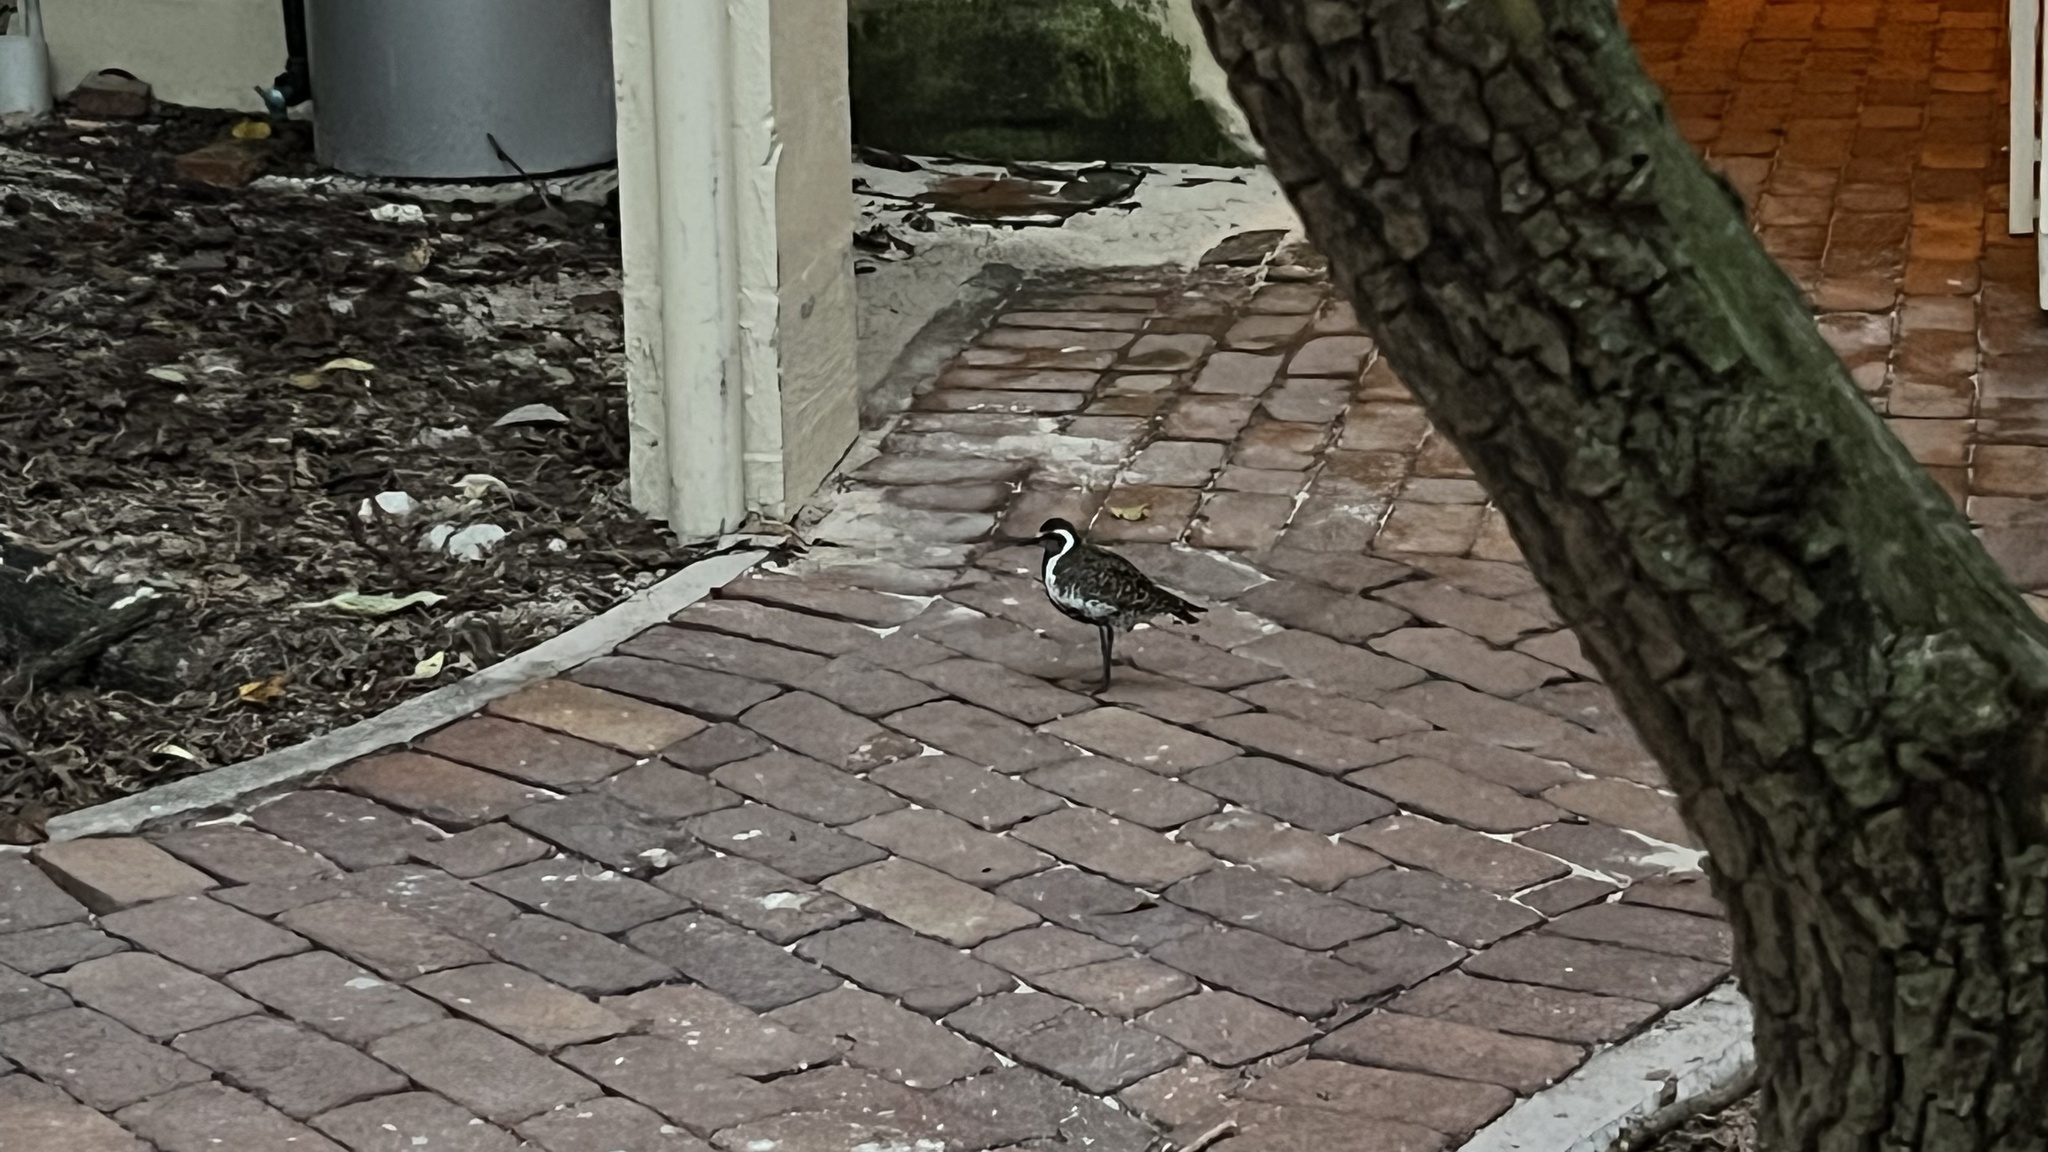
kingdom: Animalia
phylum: Chordata
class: Aves
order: Charadriiformes
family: Charadriidae
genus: Pluvialis
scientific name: Pluvialis fulva
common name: Pacific golden plover
